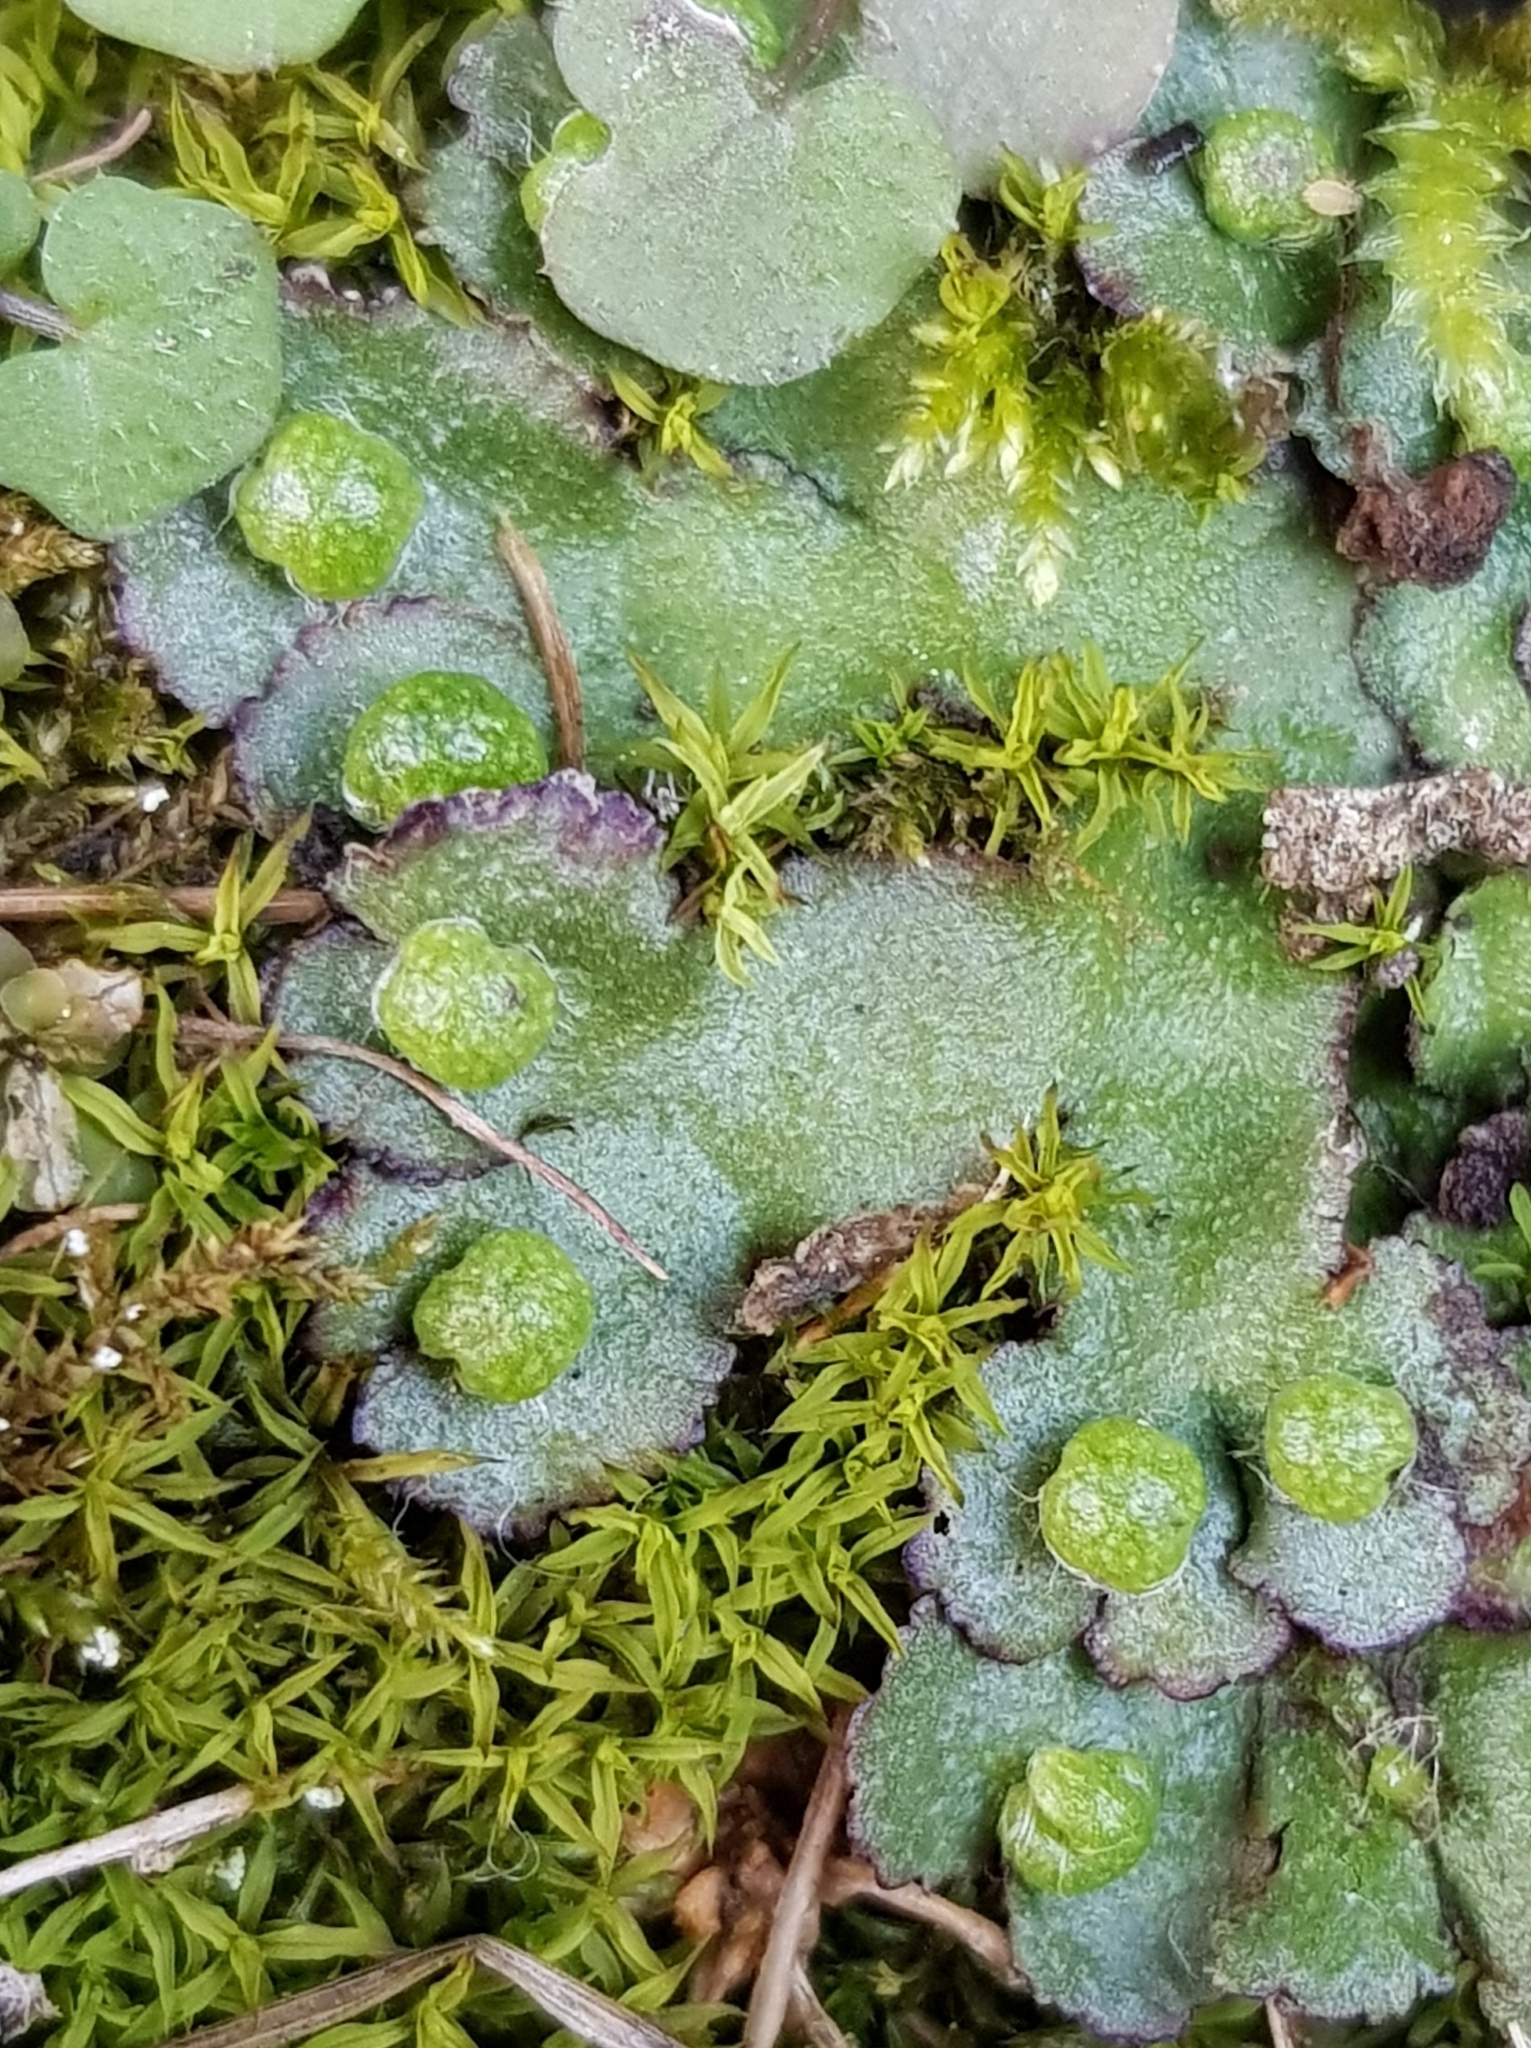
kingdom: Plantae
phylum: Marchantiophyta
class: Marchantiopsida
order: Marchantiales
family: Aytoniaceae
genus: Reboulia
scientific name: Reboulia hemisphaerica
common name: Purple-margined liverwort
